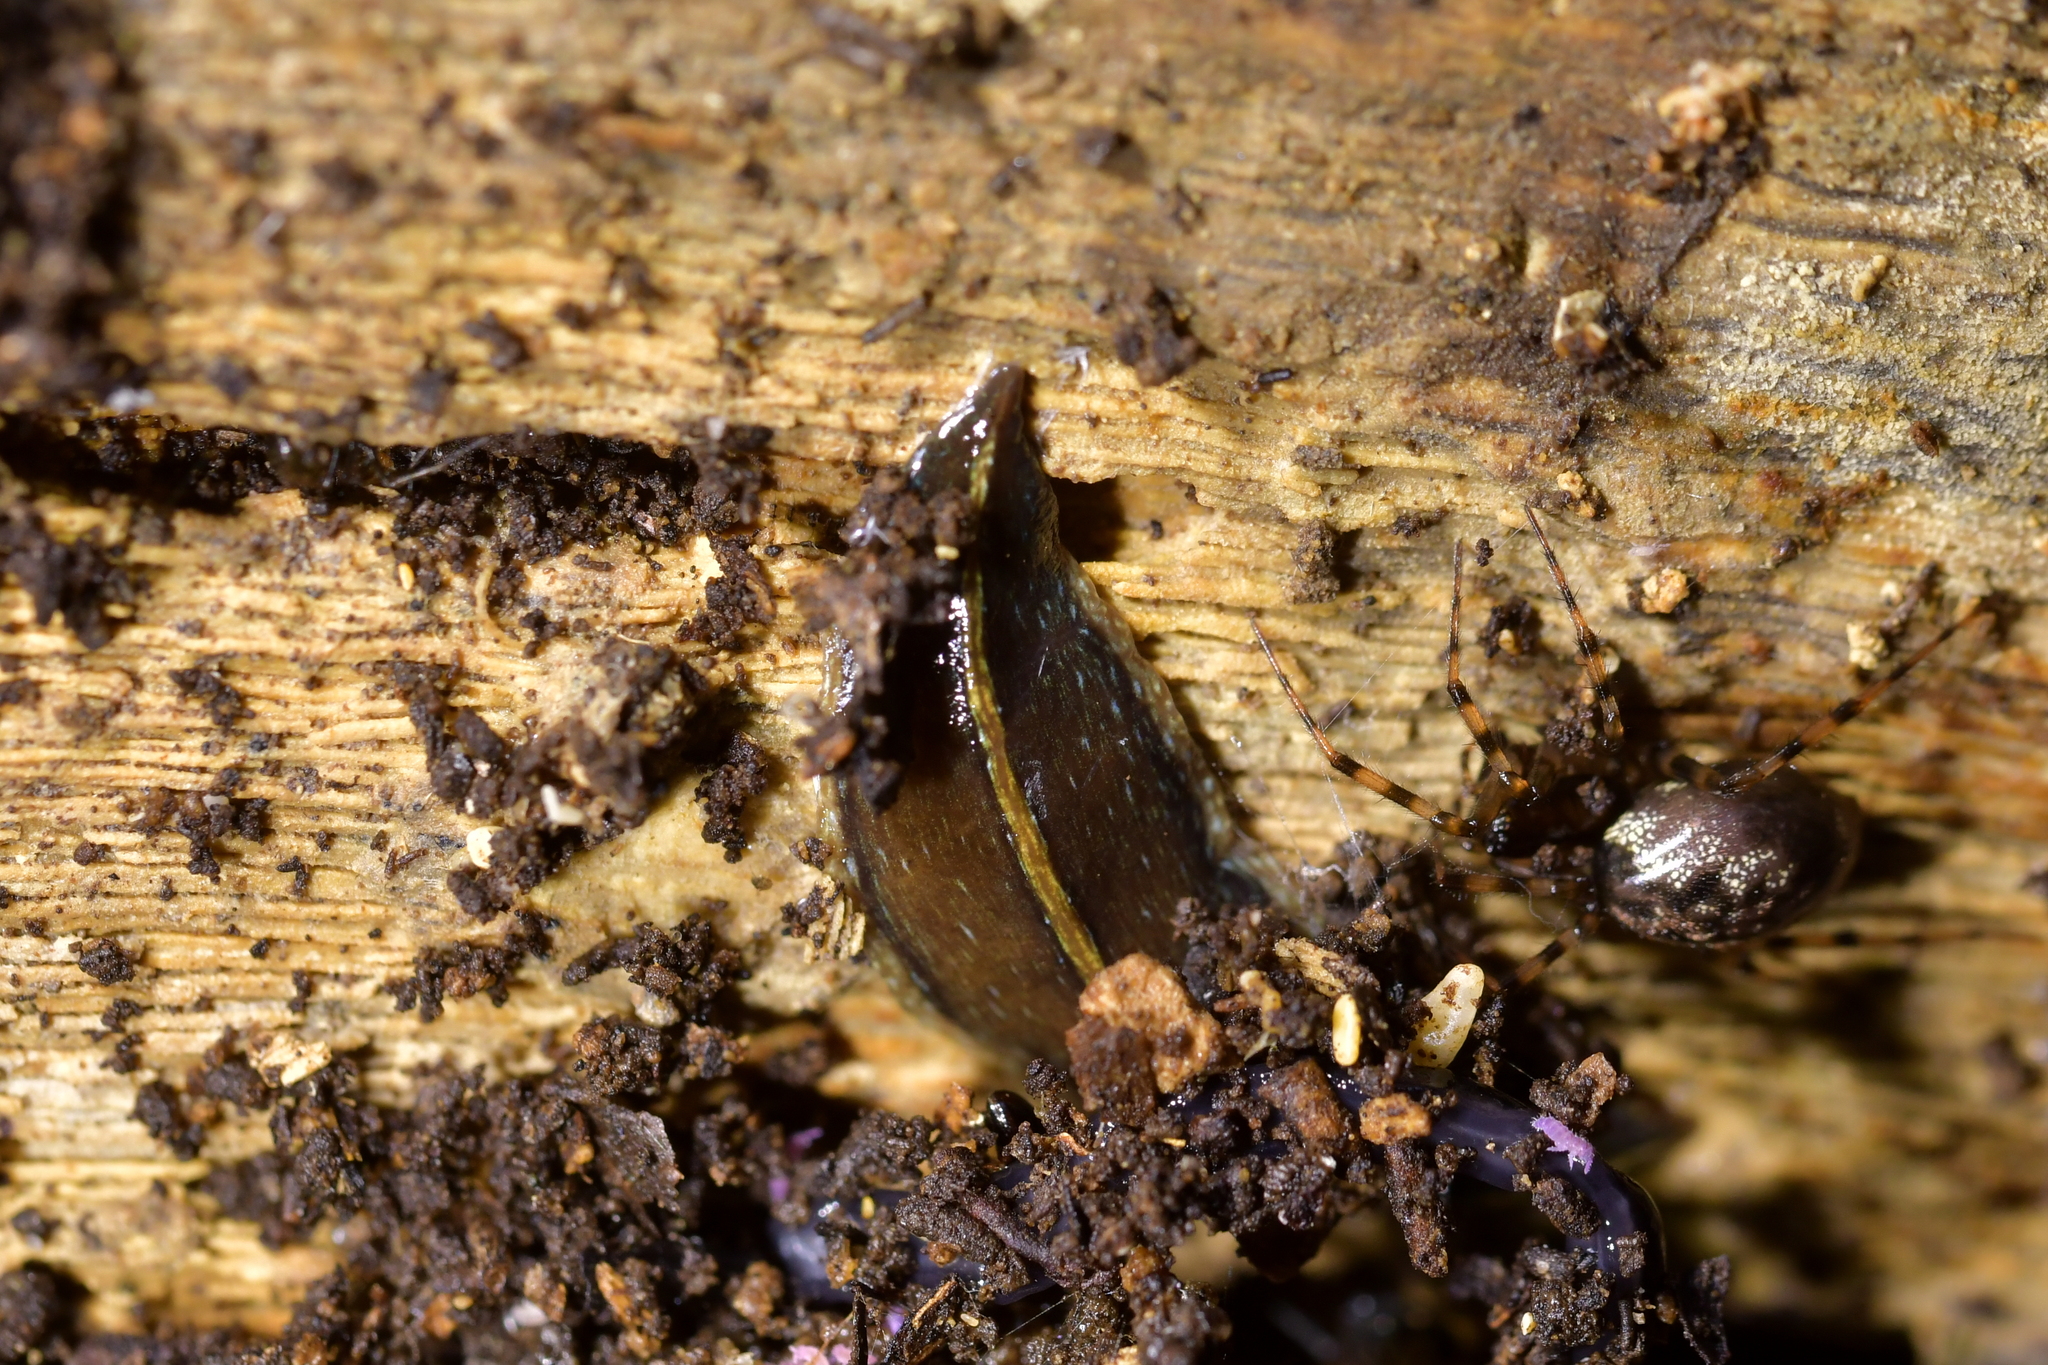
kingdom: Animalia
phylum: Platyhelminthes
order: Tricladida
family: Geoplanidae
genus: Newzealandia
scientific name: Newzealandia graffii
